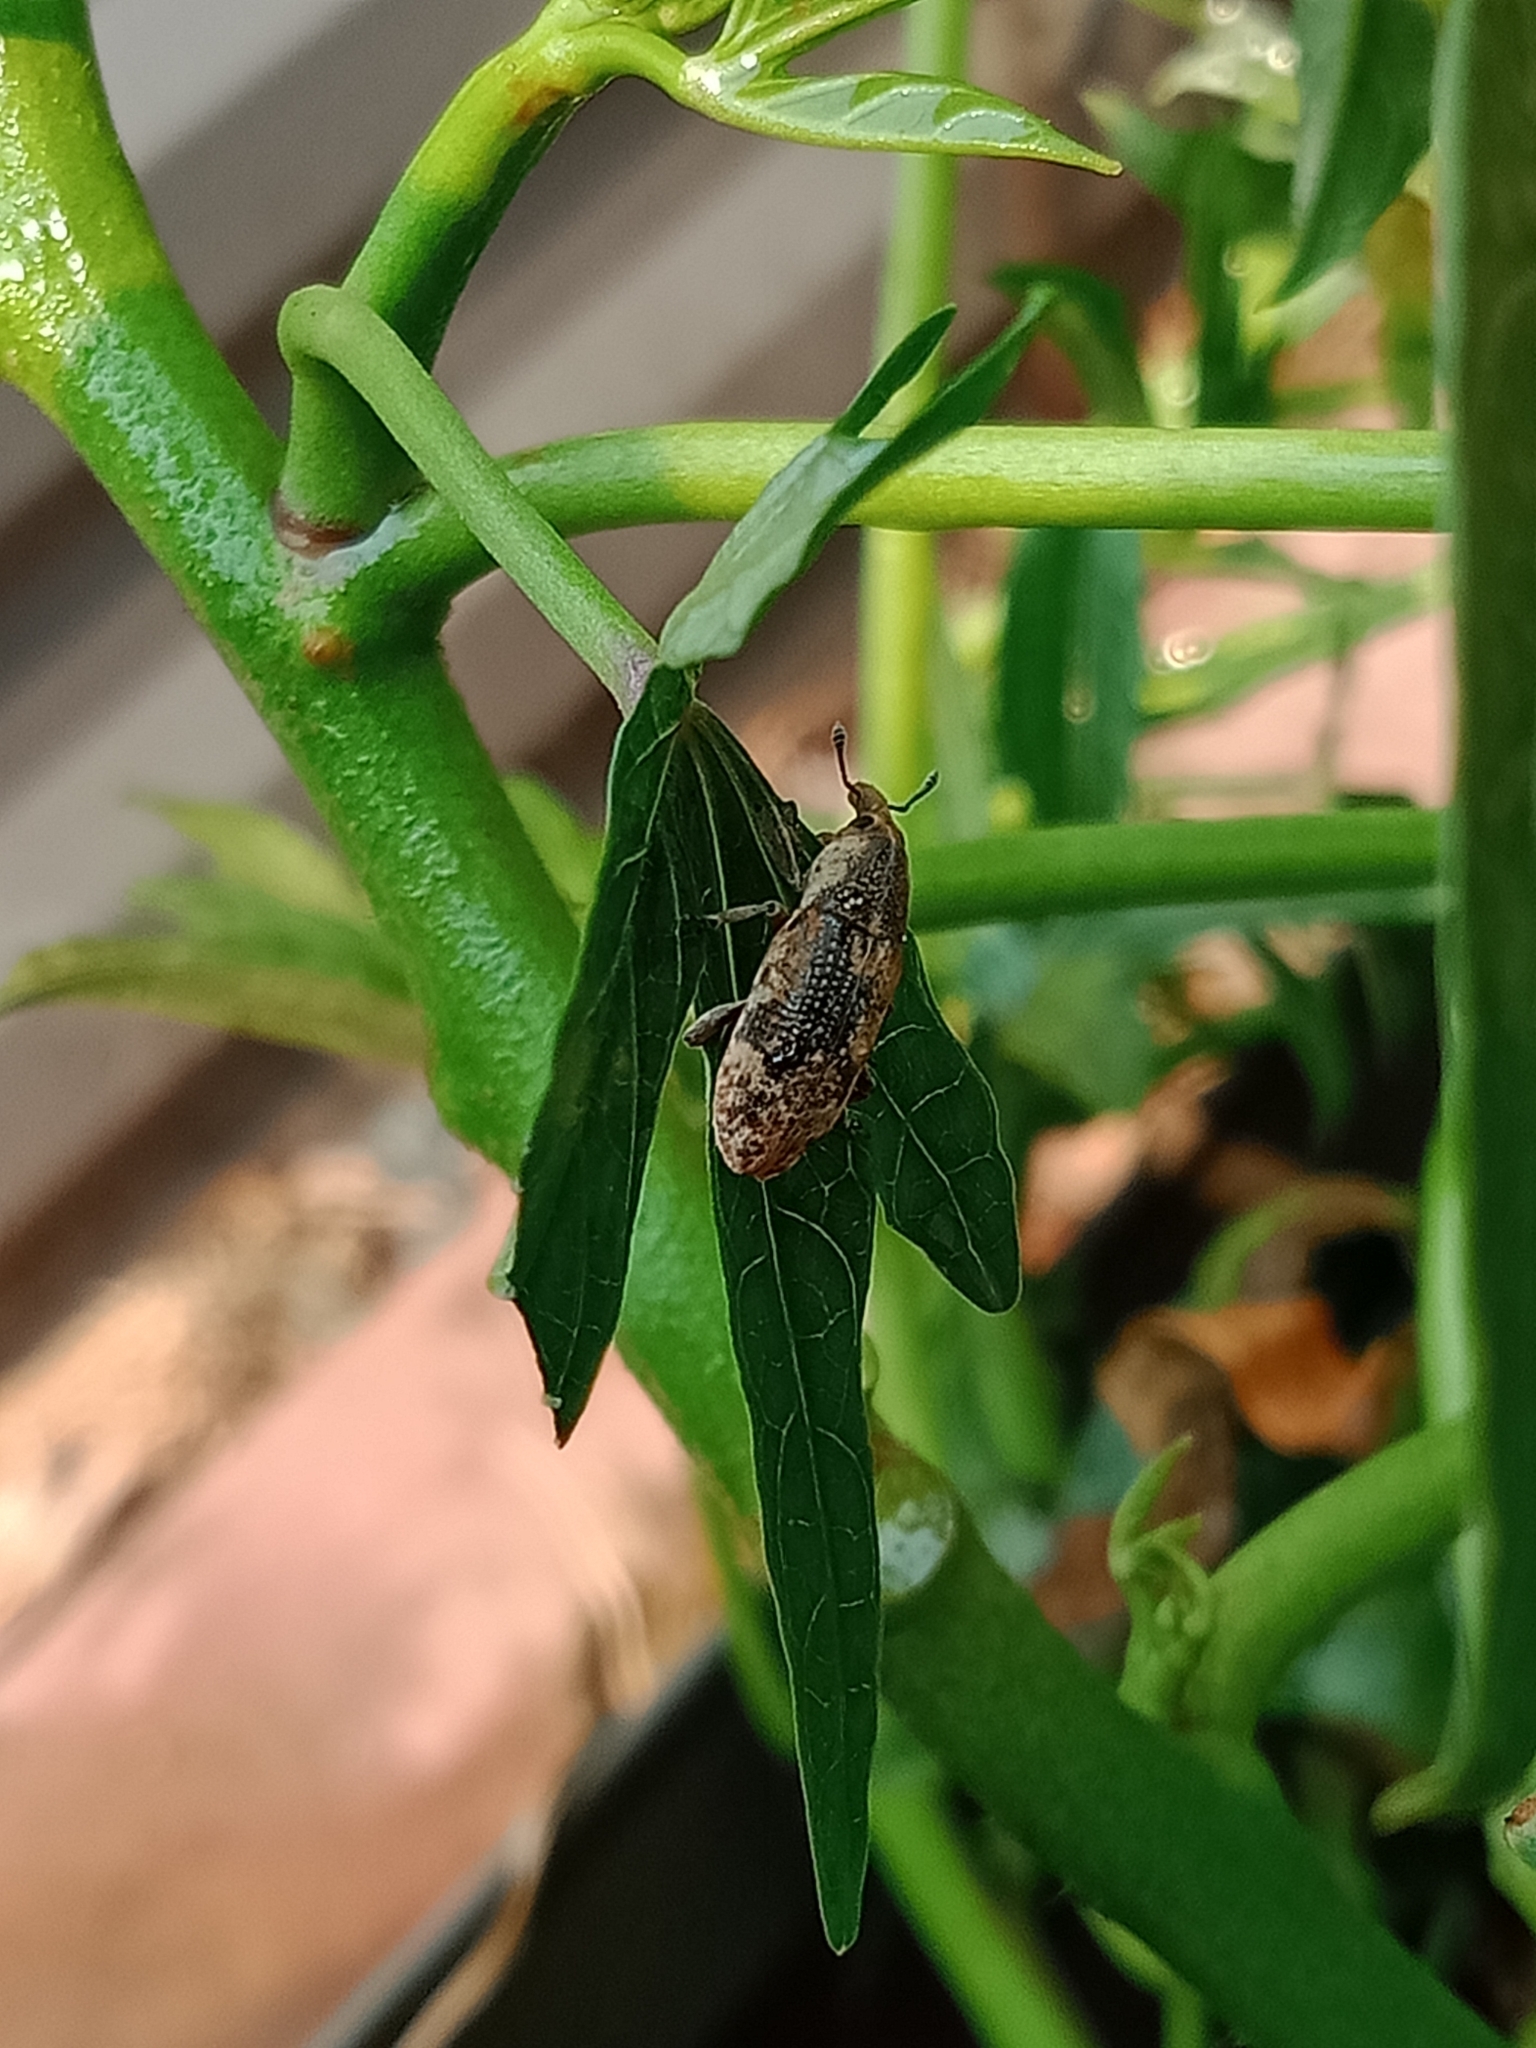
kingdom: Animalia
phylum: Arthropoda
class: Insecta
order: Coleoptera
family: Curculionidae
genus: Hypolixus
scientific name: Hypolixus
